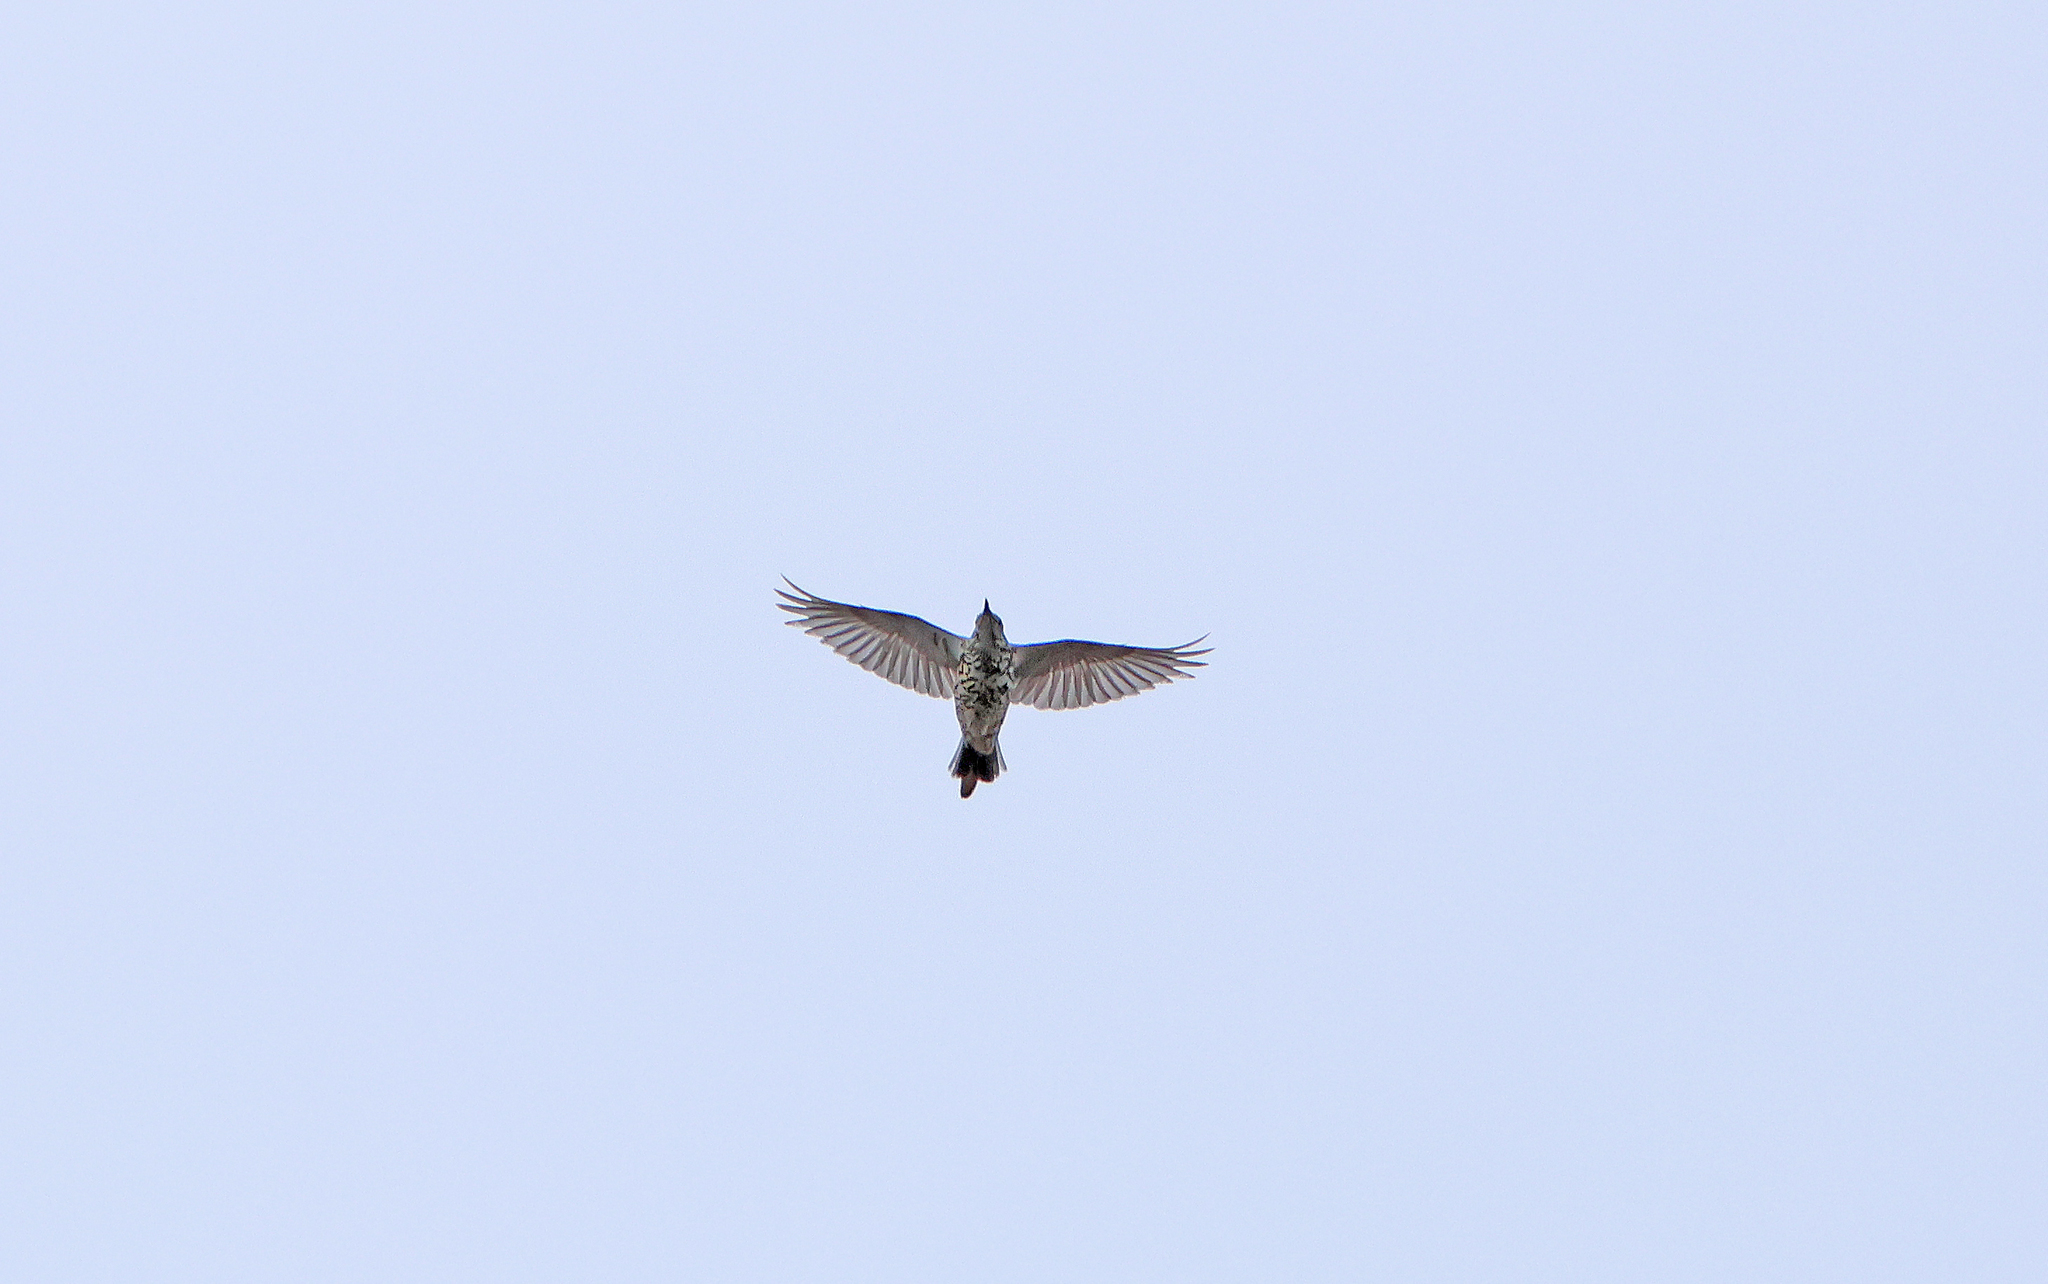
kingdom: Animalia
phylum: Chordata
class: Aves
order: Passeriformes
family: Turdidae
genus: Turdus
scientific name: Turdus viscivorus
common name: Mistle thrush
